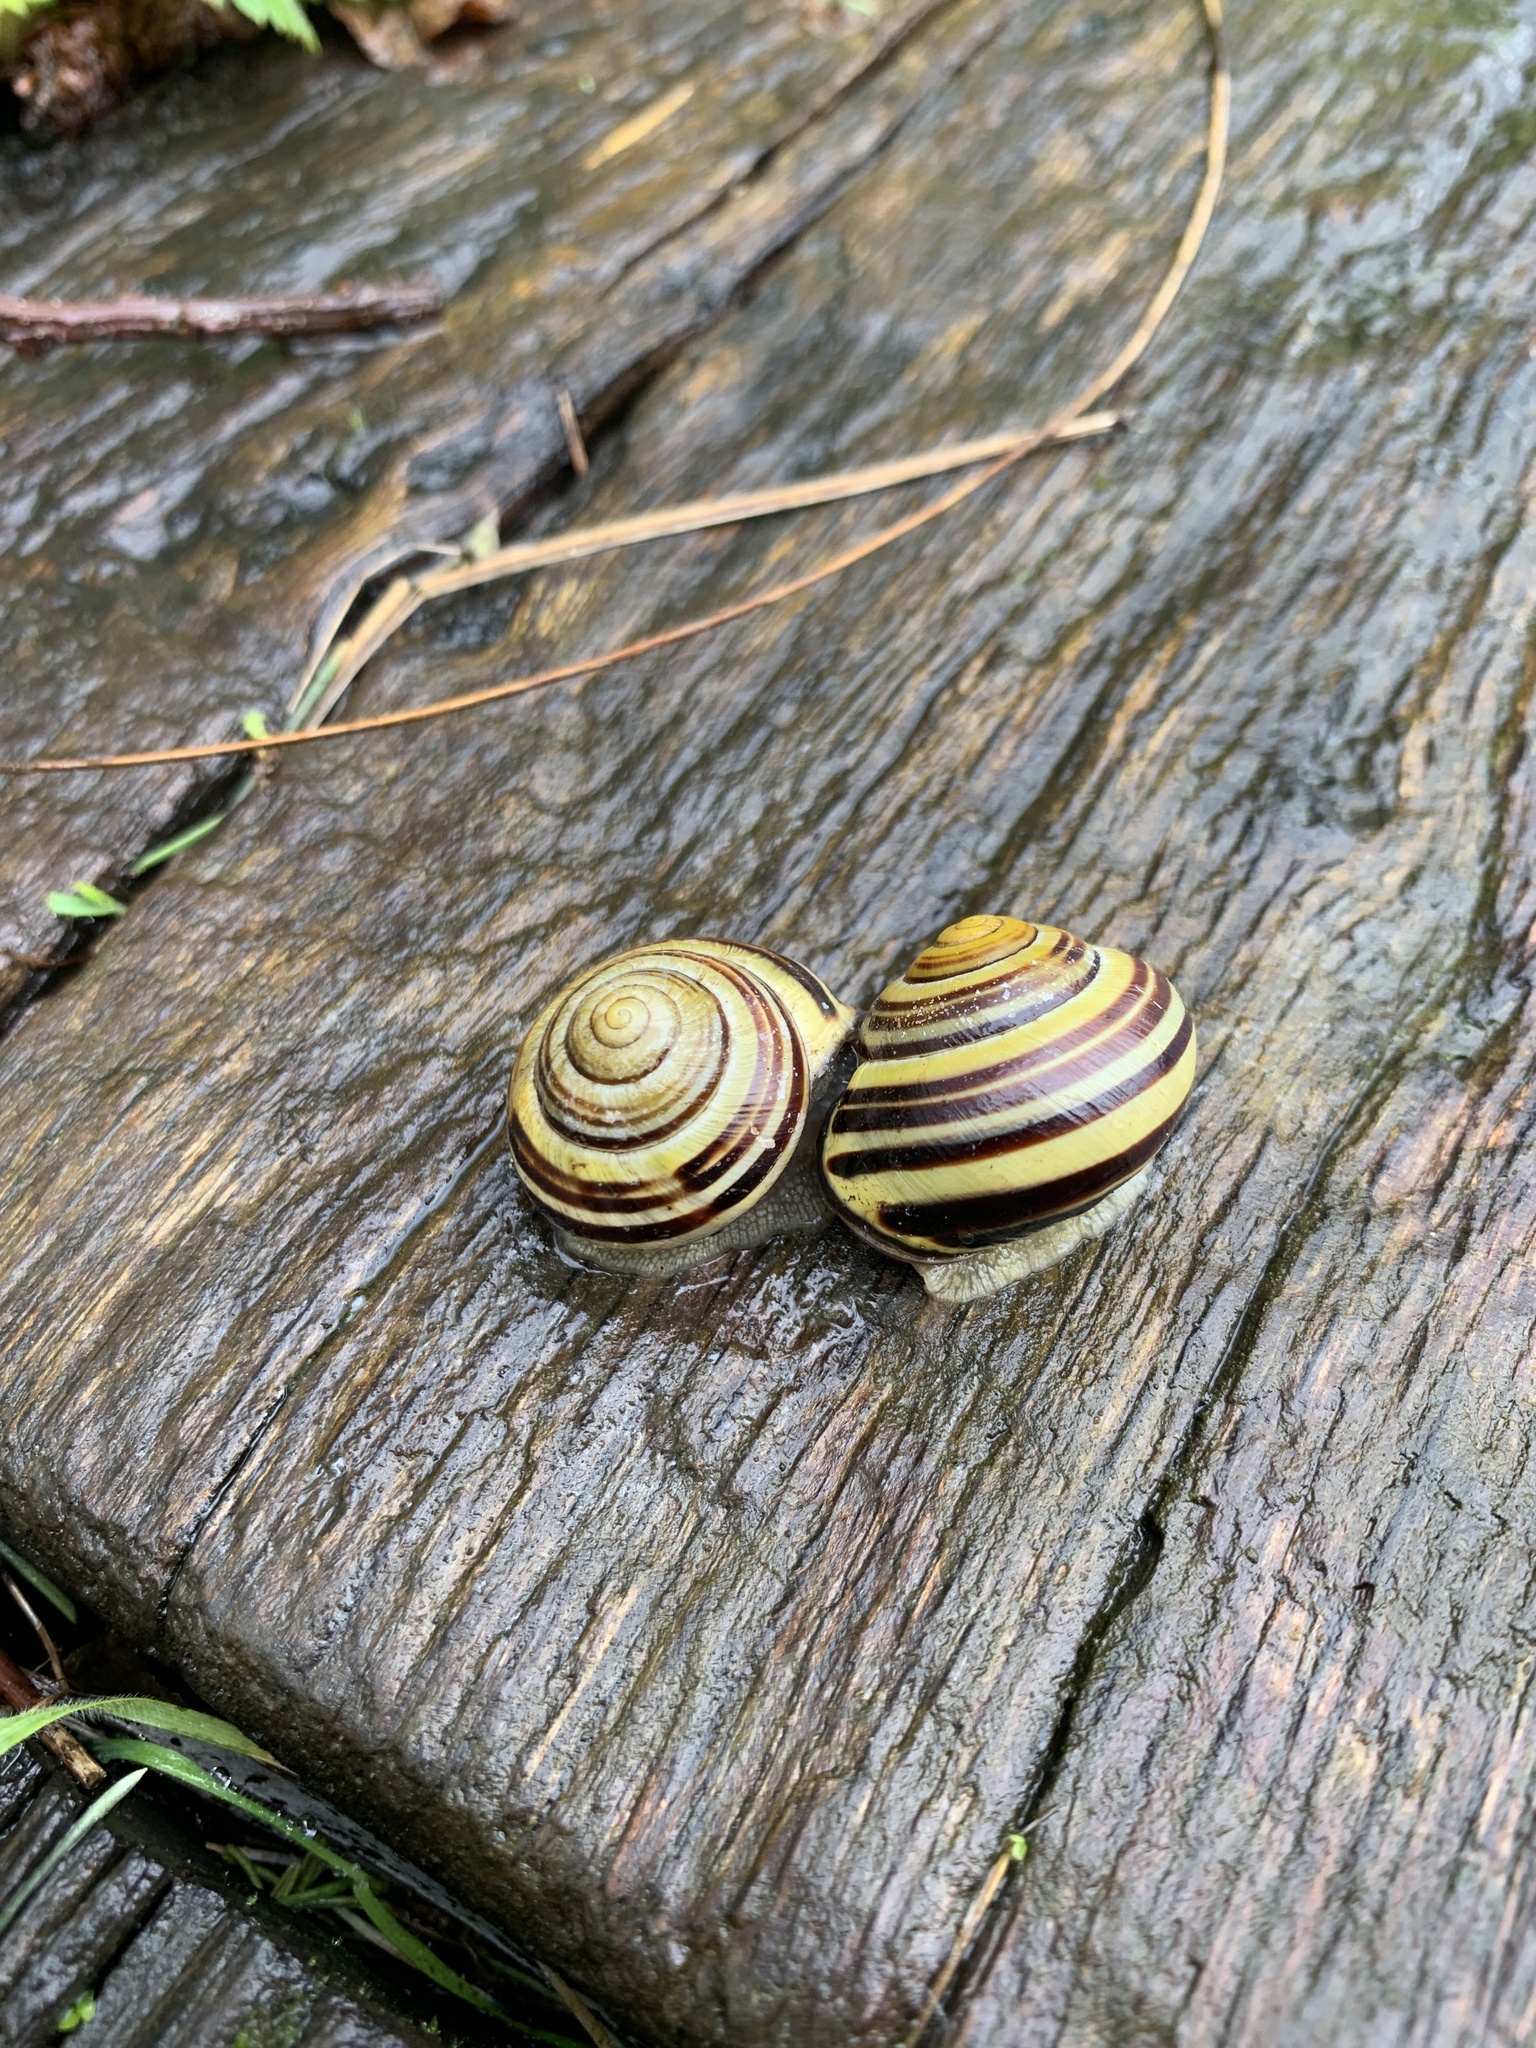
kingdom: Animalia
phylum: Mollusca
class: Gastropoda
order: Stylommatophora
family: Helicidae
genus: Cepaea
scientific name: Cepaea nemoralis
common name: Grovesnail
